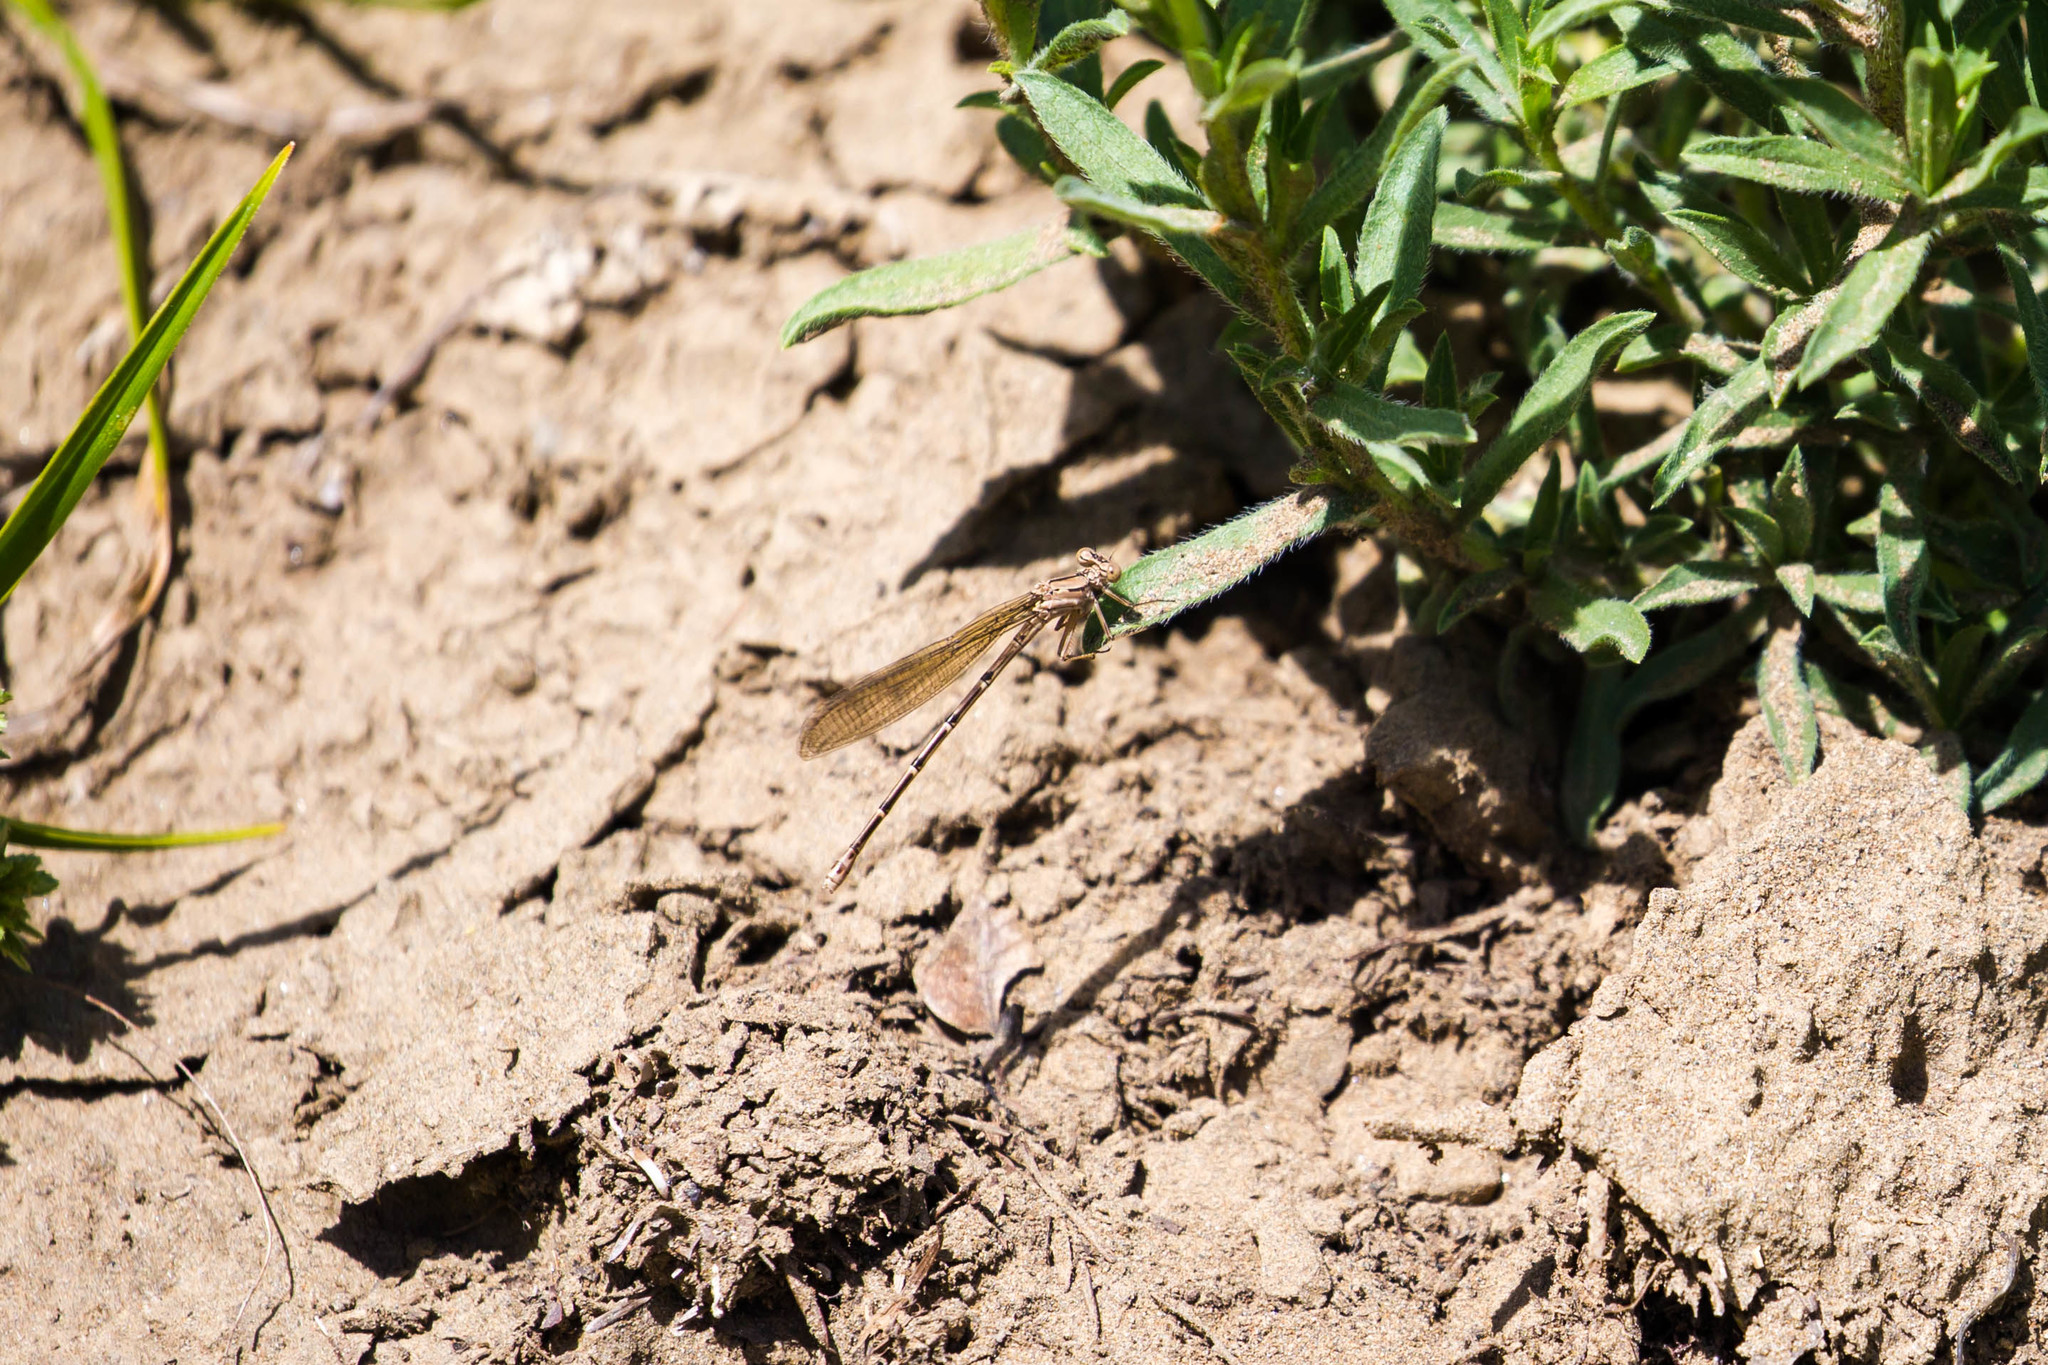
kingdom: Animalia
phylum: Arthropoda
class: Insecta
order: Odonata
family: Coenagrionidae
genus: Argia
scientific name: Argia emma
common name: Emma's dancer
